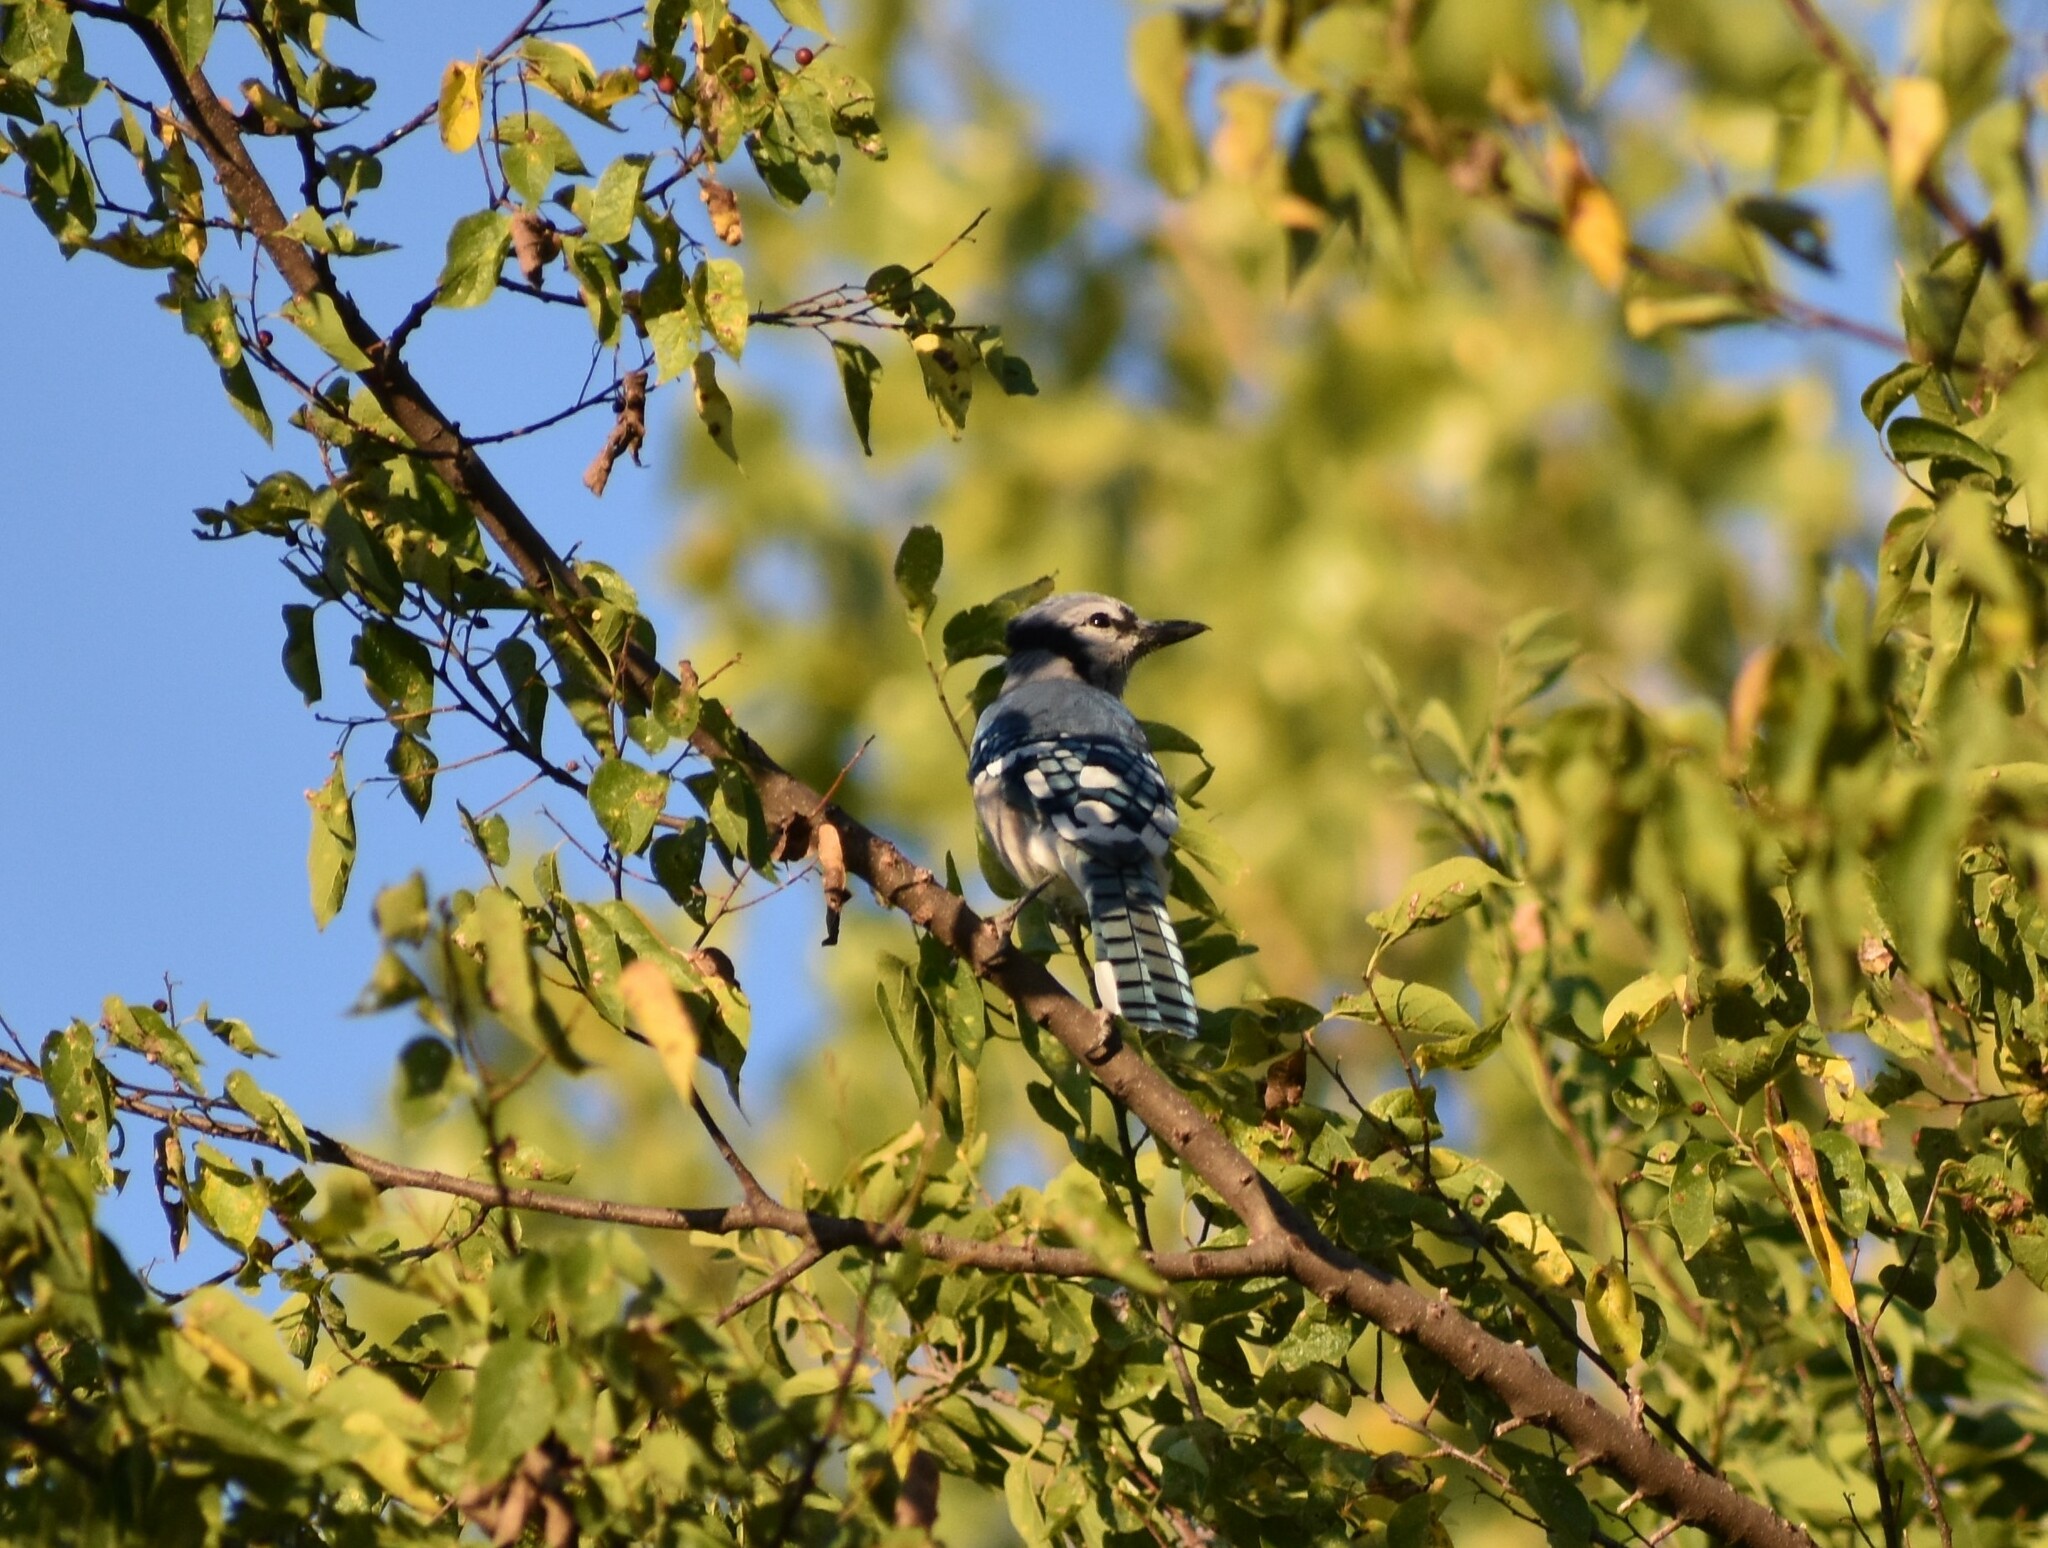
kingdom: Animalia
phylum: Chordata
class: Aves
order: Passeriformes
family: Corvidae
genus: Cyanocitta
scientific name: Cyanocitta cristata
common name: Blue jay
